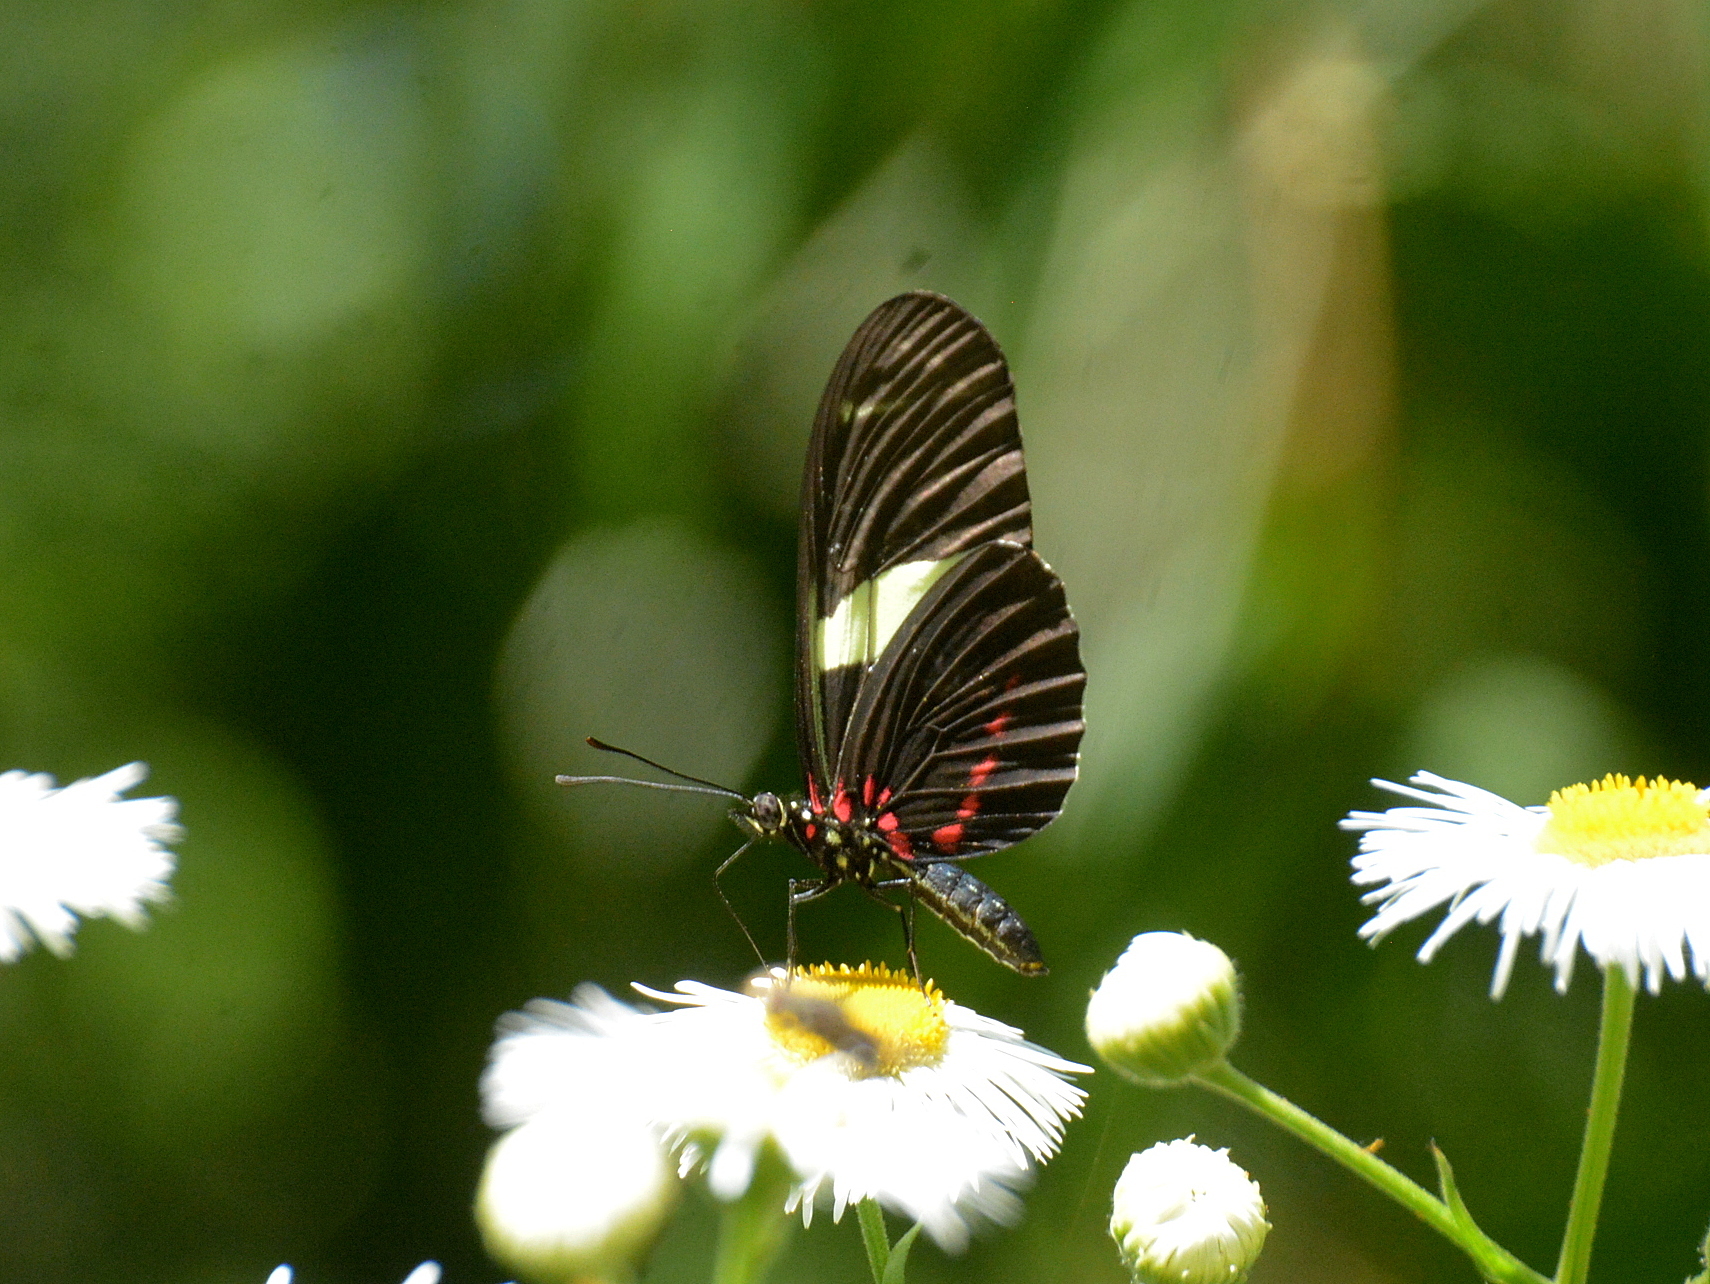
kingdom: Animalia
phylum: Arthropoda
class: Insecta
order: Lepidoptera
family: Nymphalidae
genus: Heliconius
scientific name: Heliconius sara
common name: Sara longwing
